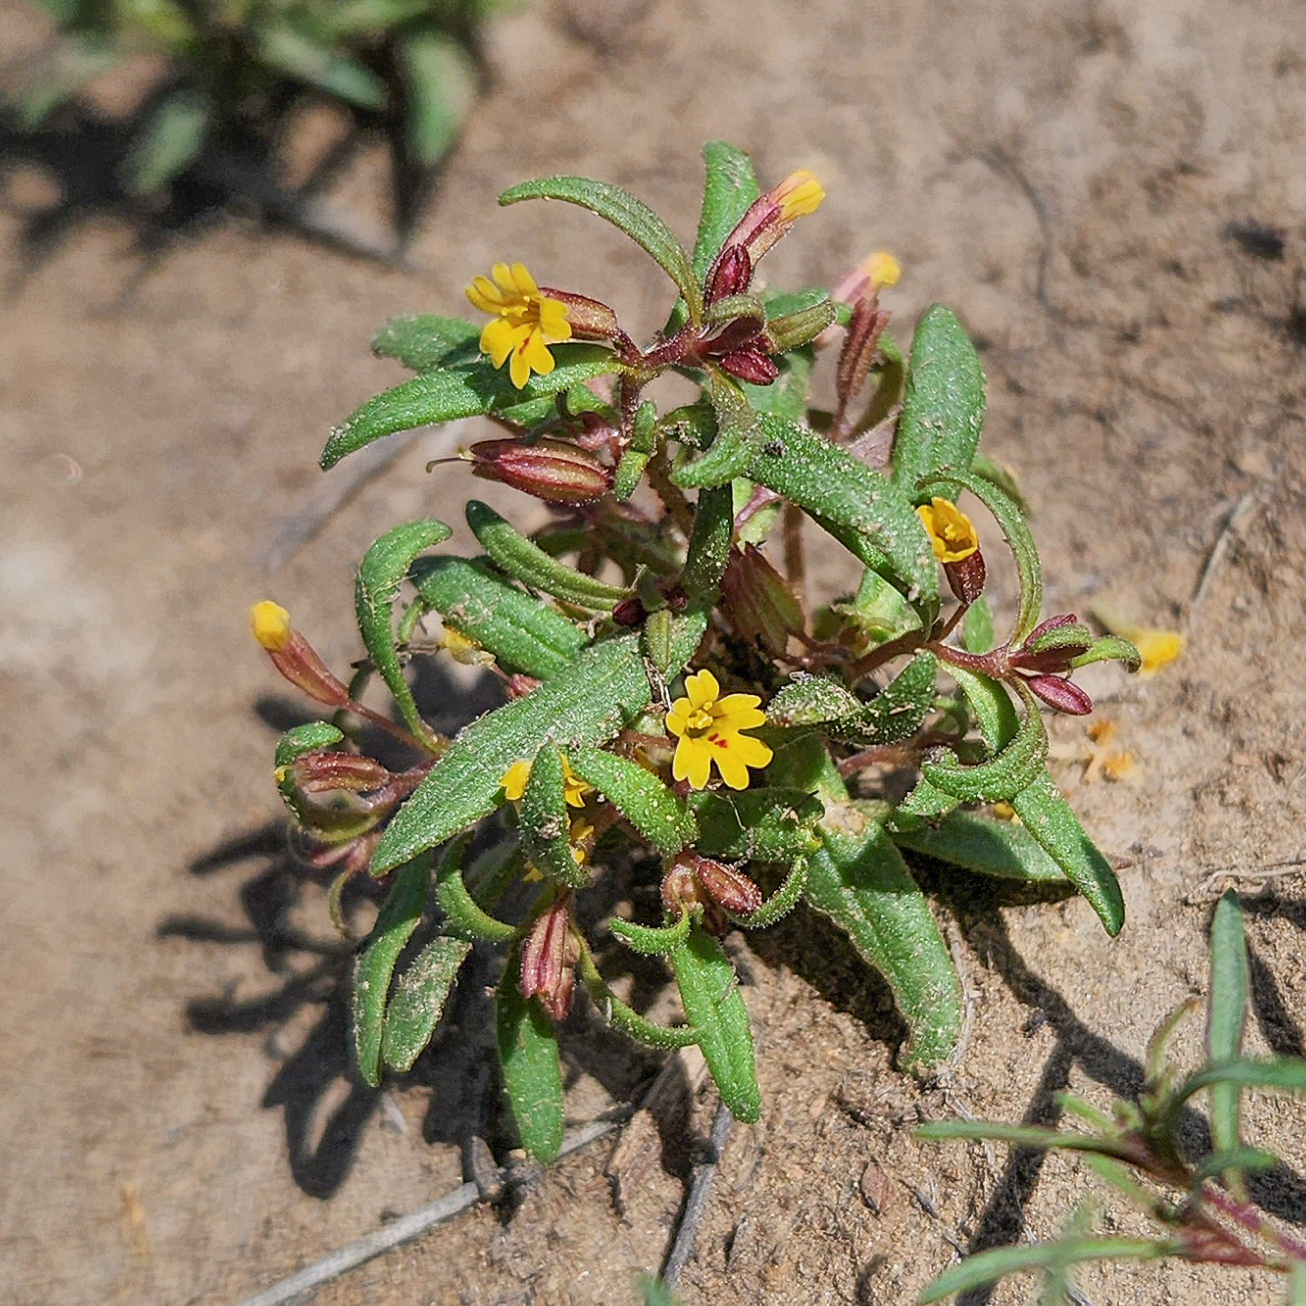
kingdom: Plantae
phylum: Tracheophyta
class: Magnoliopsida
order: Lamiales
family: Phrymaceae
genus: Erythranthe
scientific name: Erythranthe suksdorfii
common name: Suksdorf's monkeyflower
